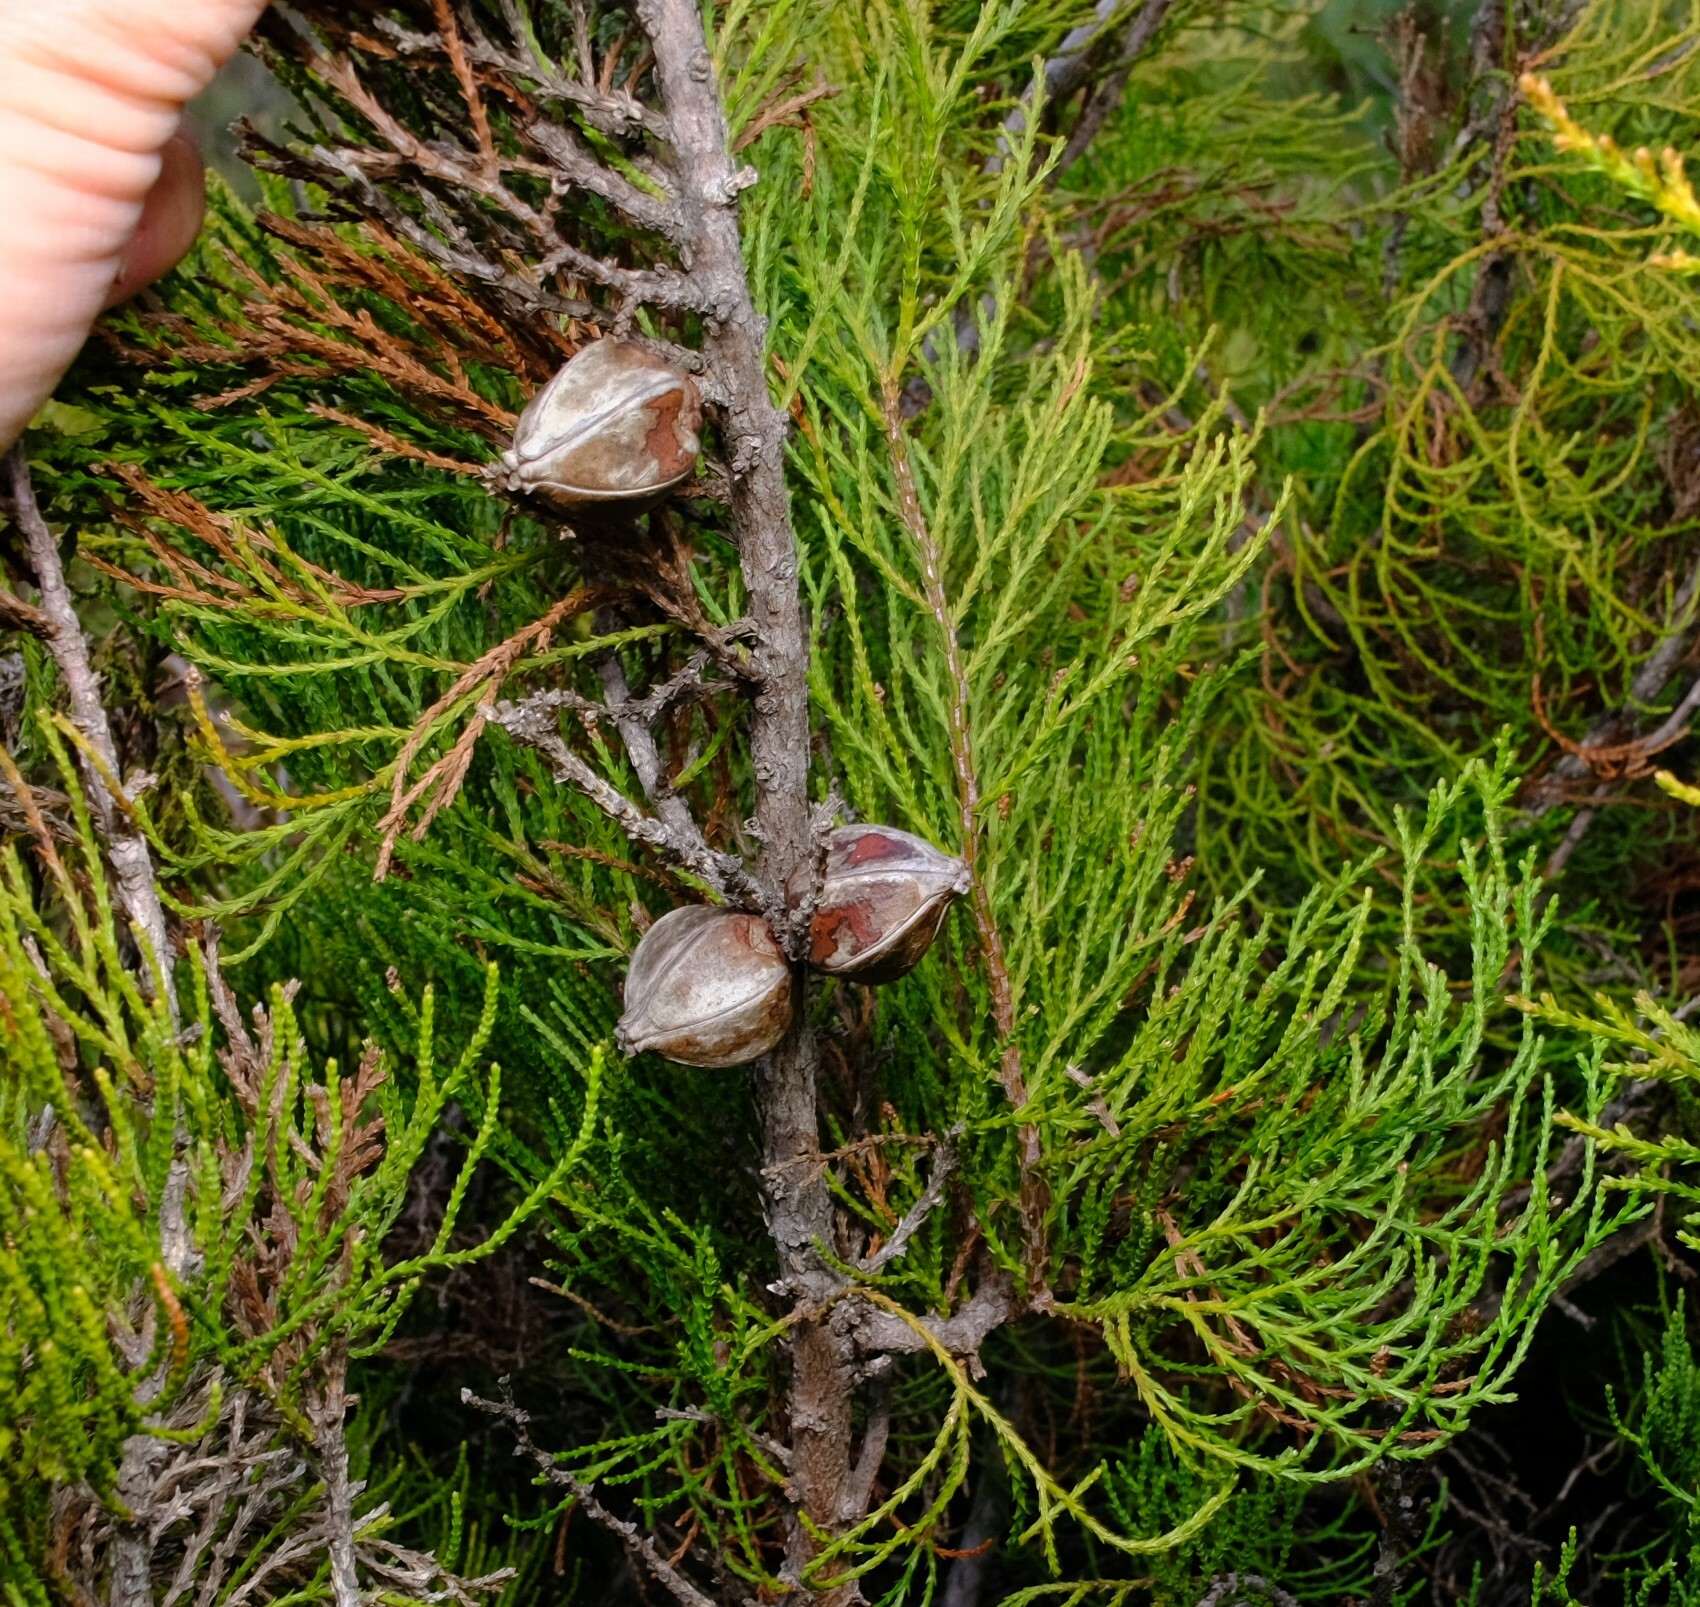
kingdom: Plantae
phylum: Tracheophyta
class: Pinopsida
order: Pinales
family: Cupressaceae
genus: Actinostrobus
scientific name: Actinostrobus acuminatus
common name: Dwarf-cypress
